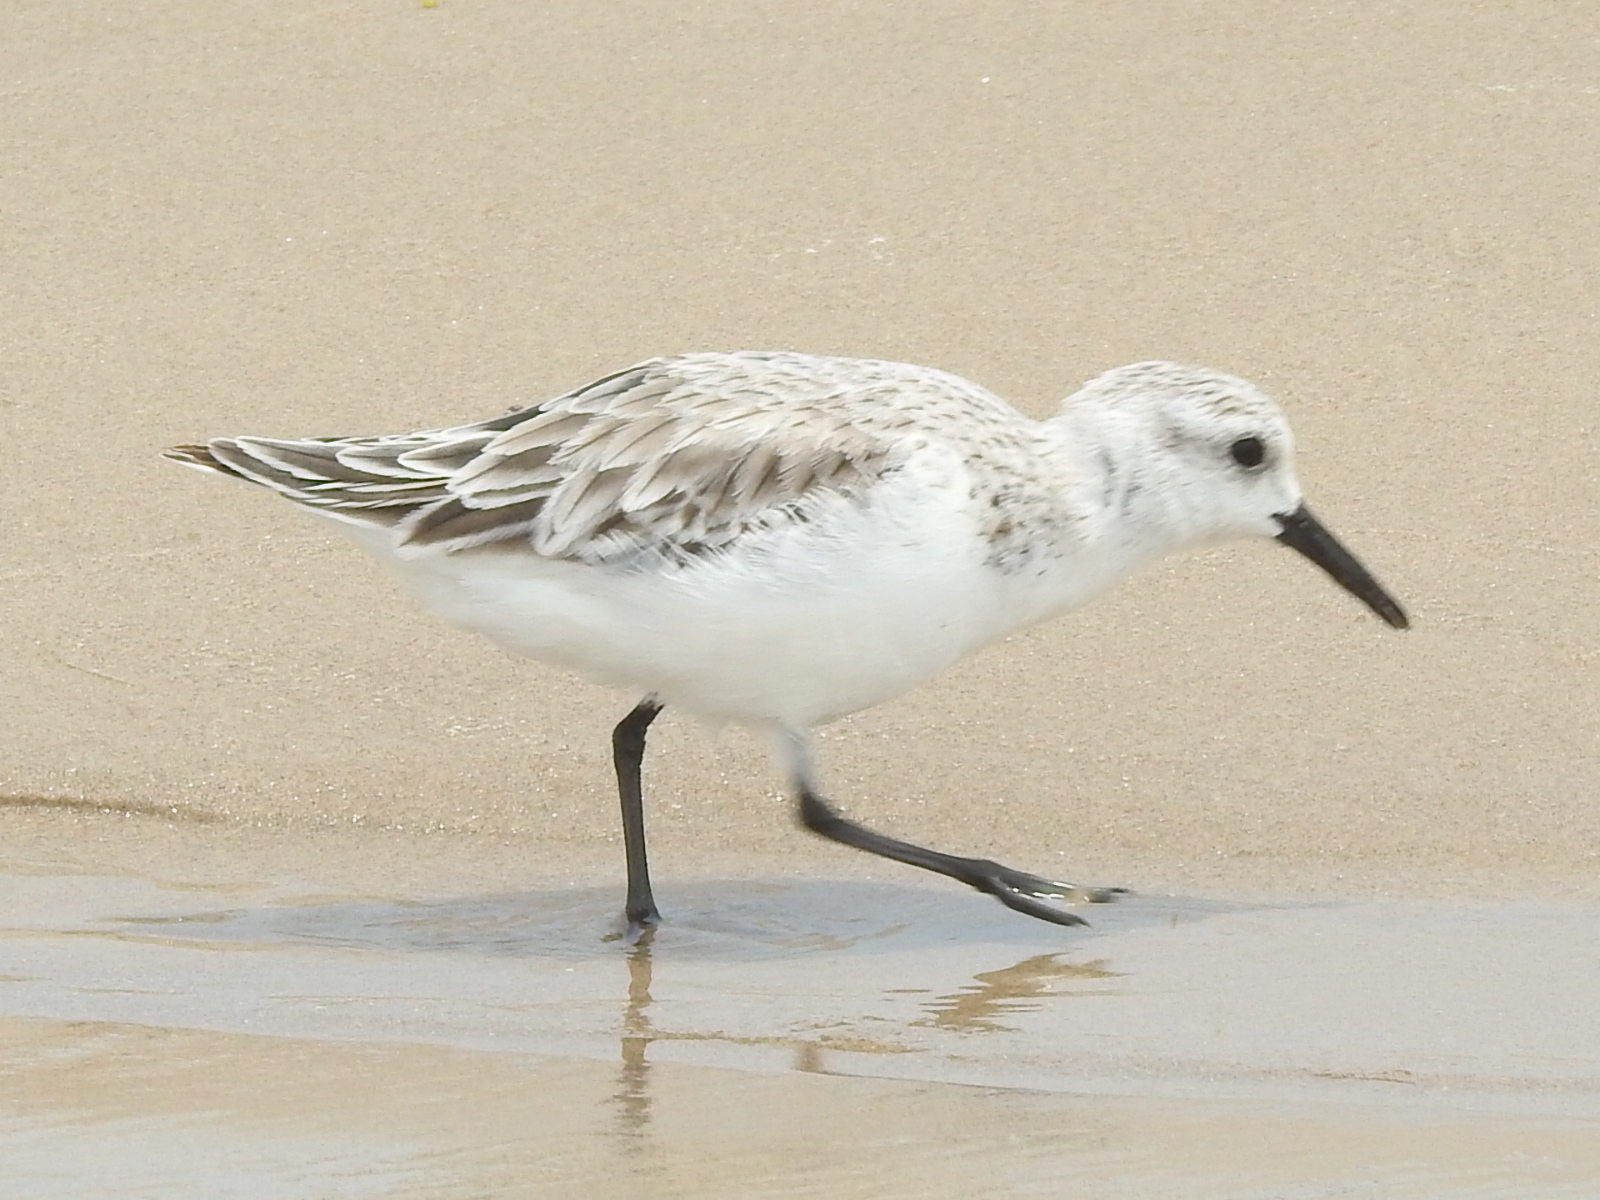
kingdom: Animalia
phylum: Chordata
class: Aves
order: Charadriiformes
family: Scolopacidae
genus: Calidris
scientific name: Calidris alba
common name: Sanderling
